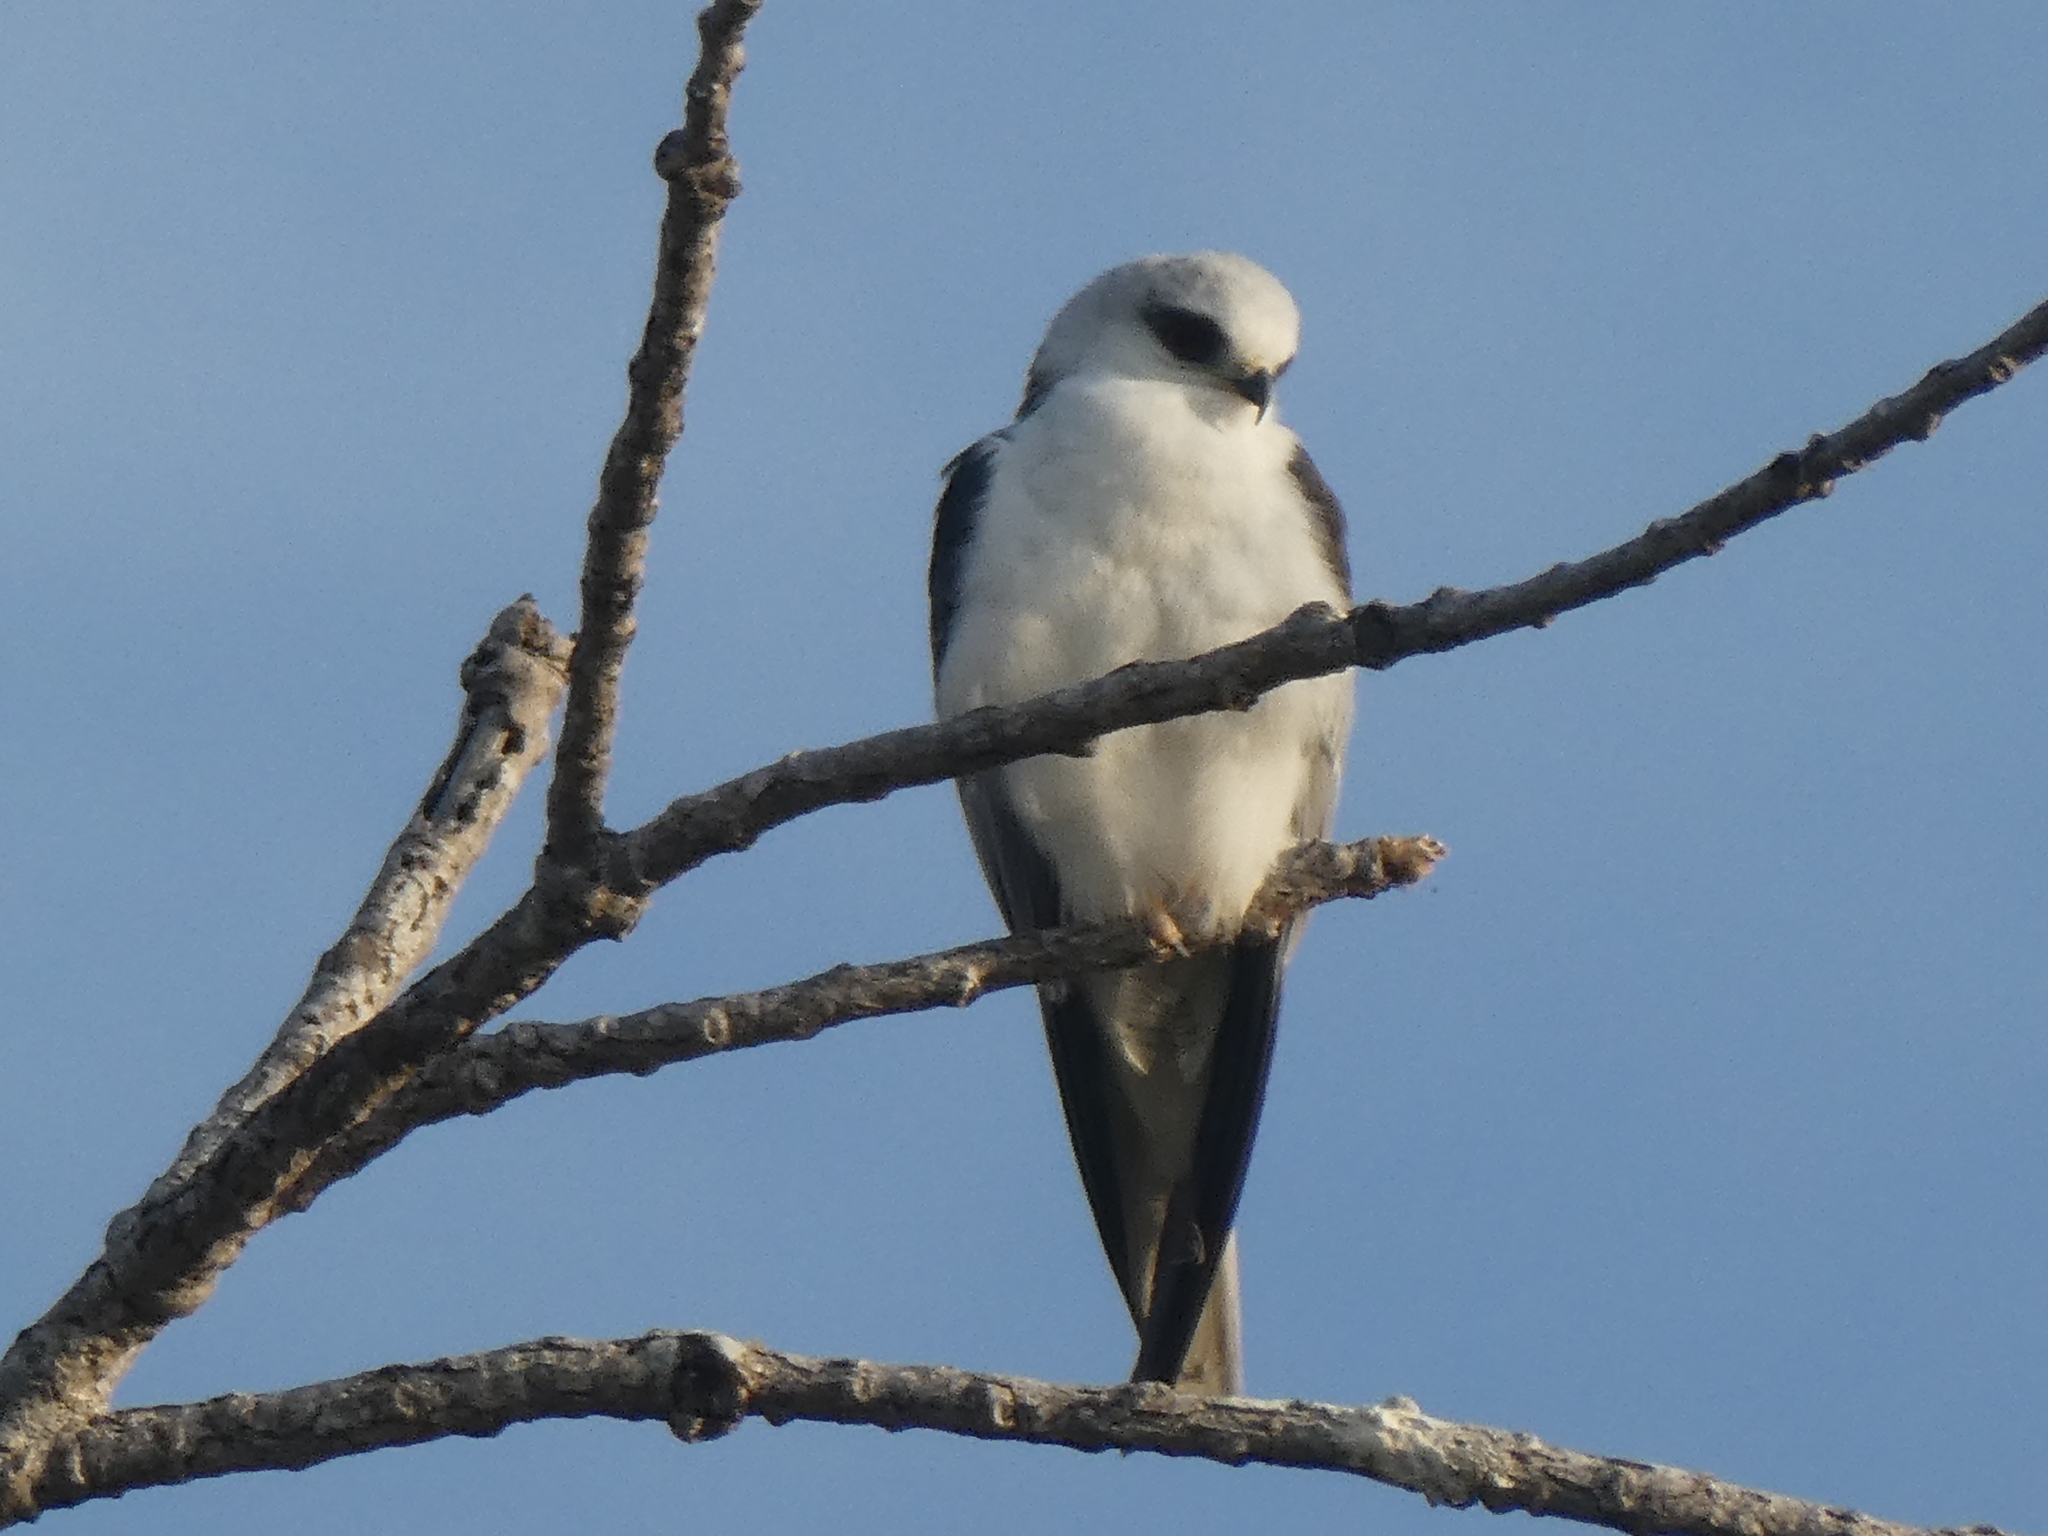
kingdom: Animalia
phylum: Chordata
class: Aves
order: Accipitriformes
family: Accipitridae
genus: Elanus
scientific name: Elanus leucurus
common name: White-tailed kite
